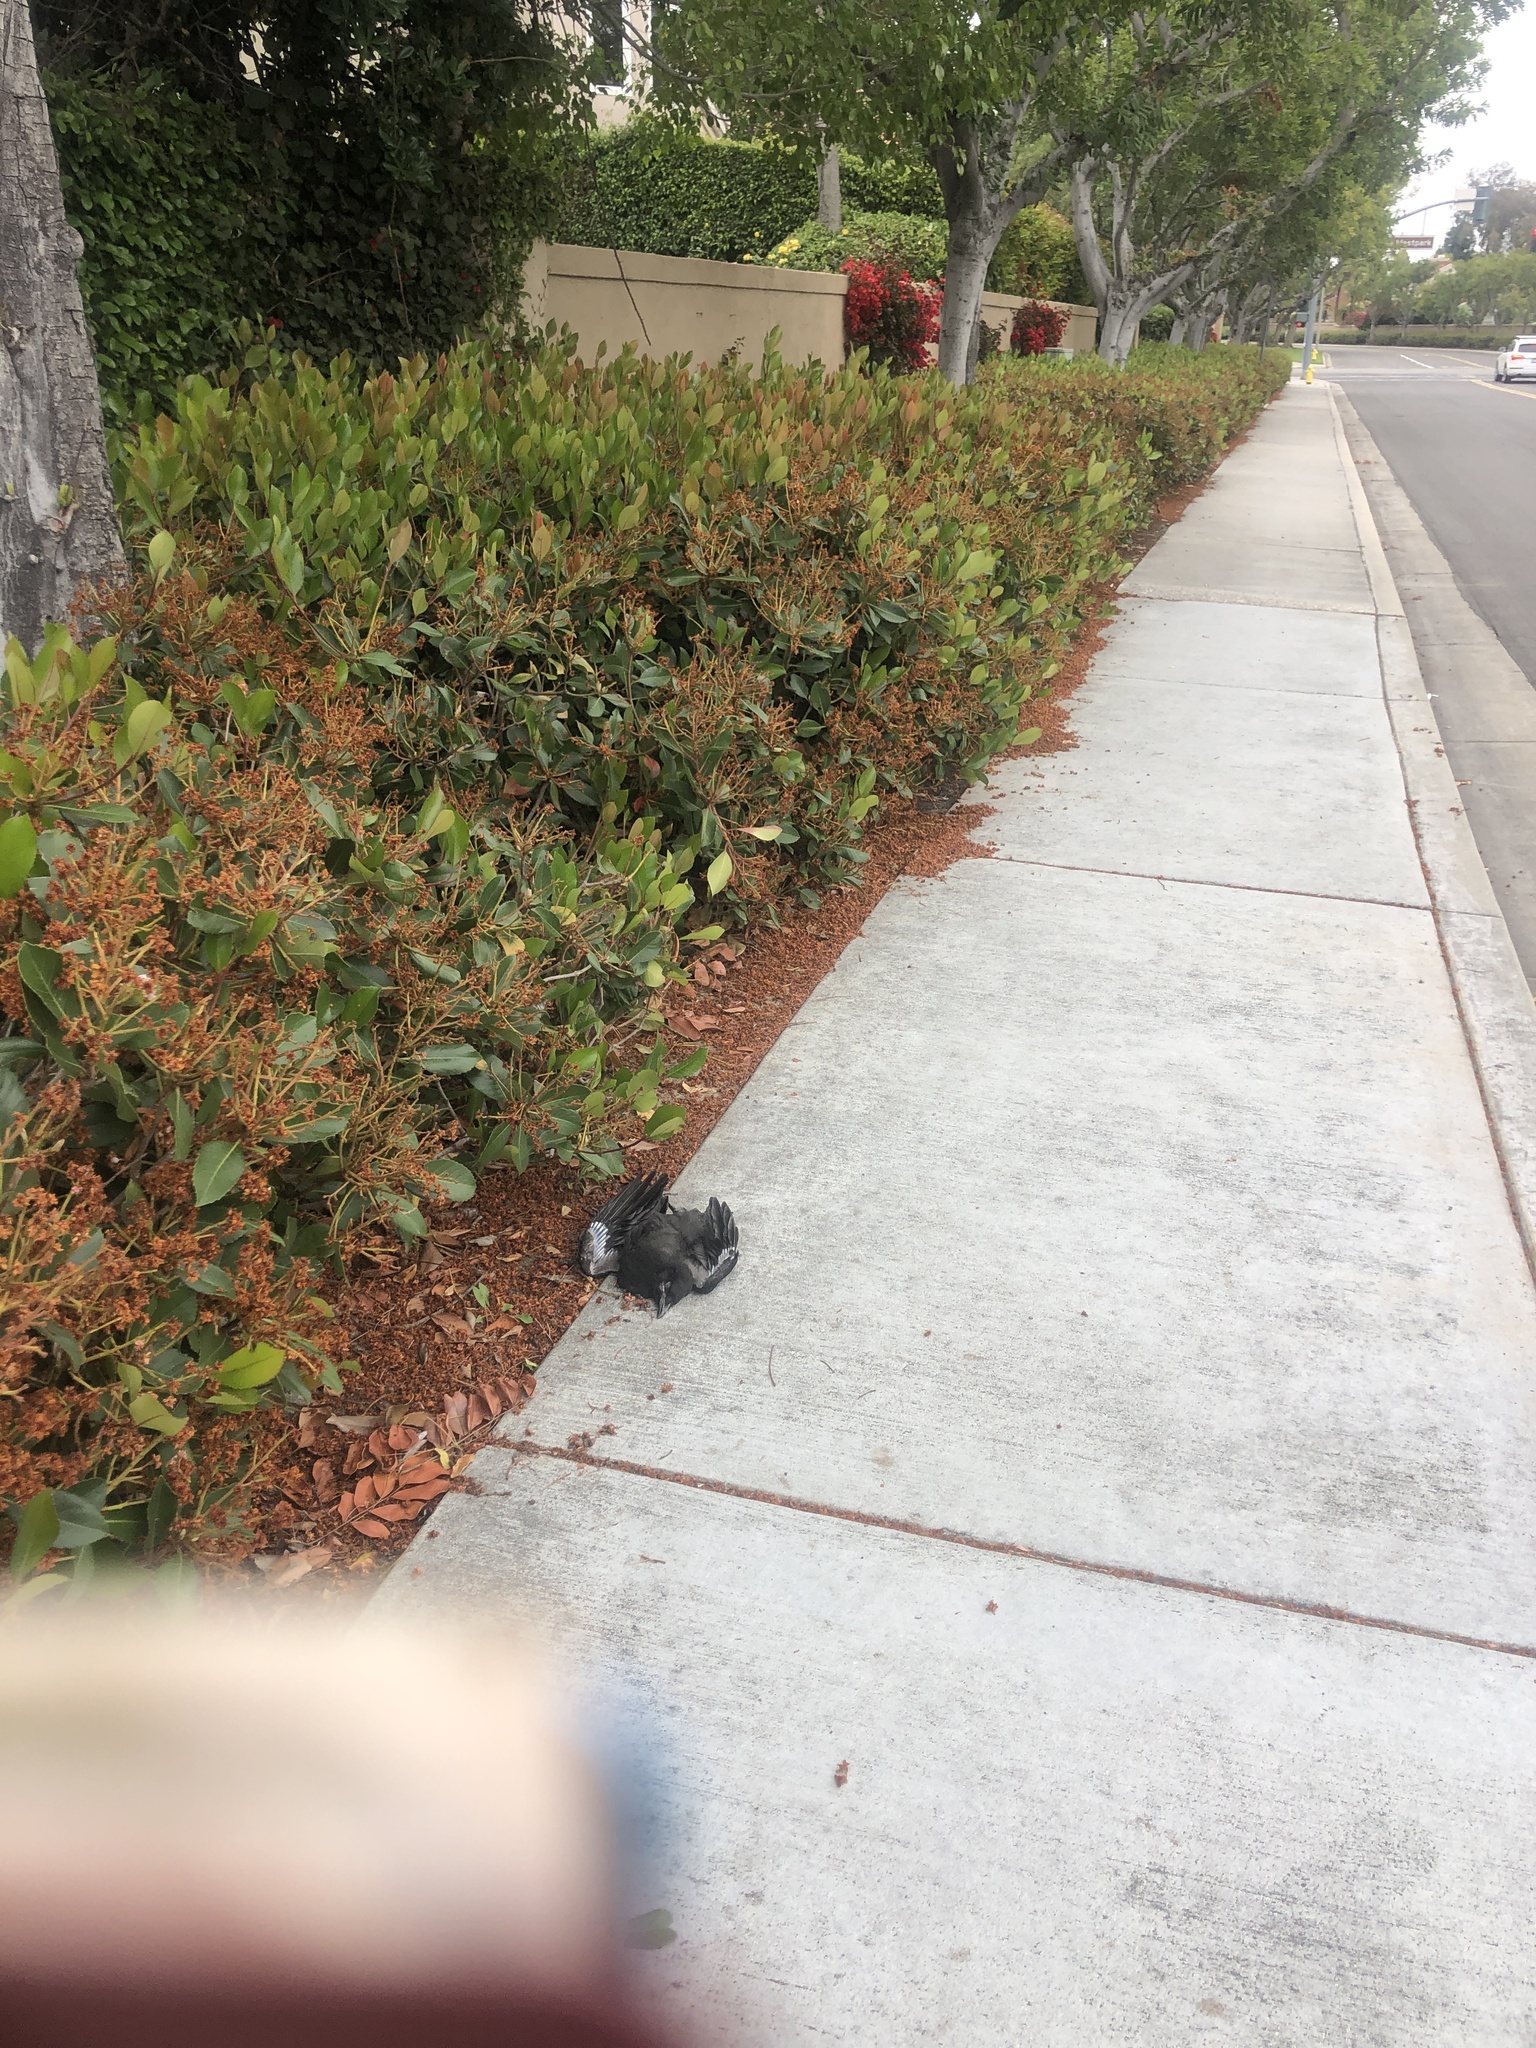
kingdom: Animalia
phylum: Chordata
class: Aves
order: Passeriformes
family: Corvidae
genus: Corvus
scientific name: Corvus brachyrhynchos
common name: American crow
